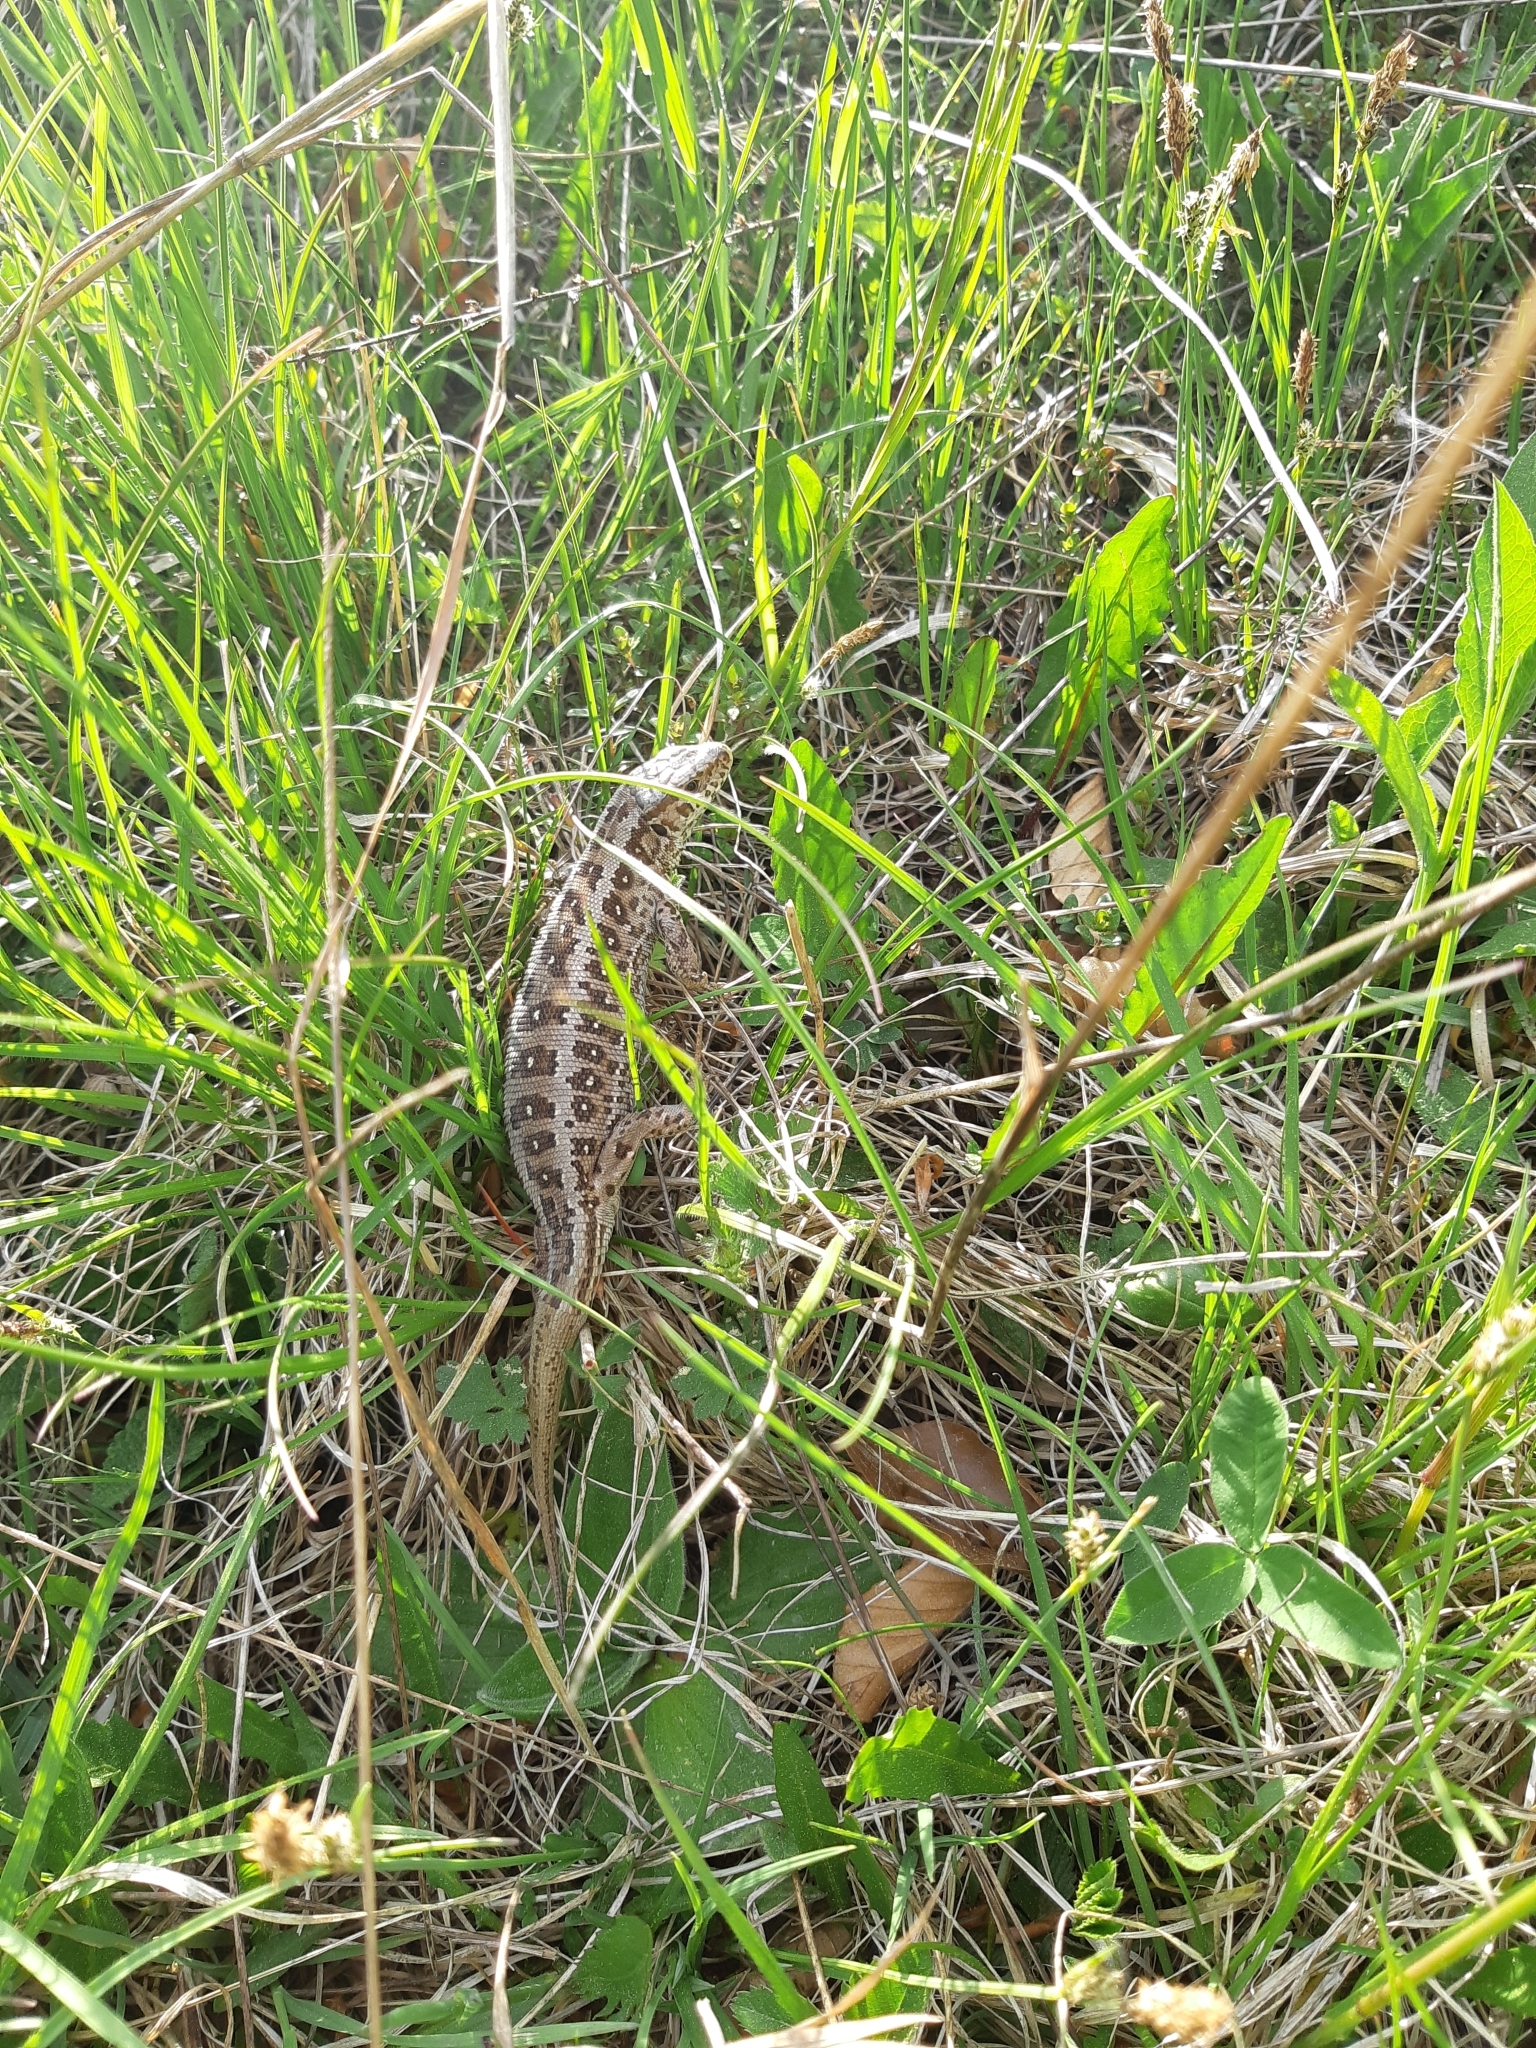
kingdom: Animalia
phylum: Chordata
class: Squamata
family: Lacertidae
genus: Lacerta
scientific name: Lacerta agilis
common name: Sand lizard
